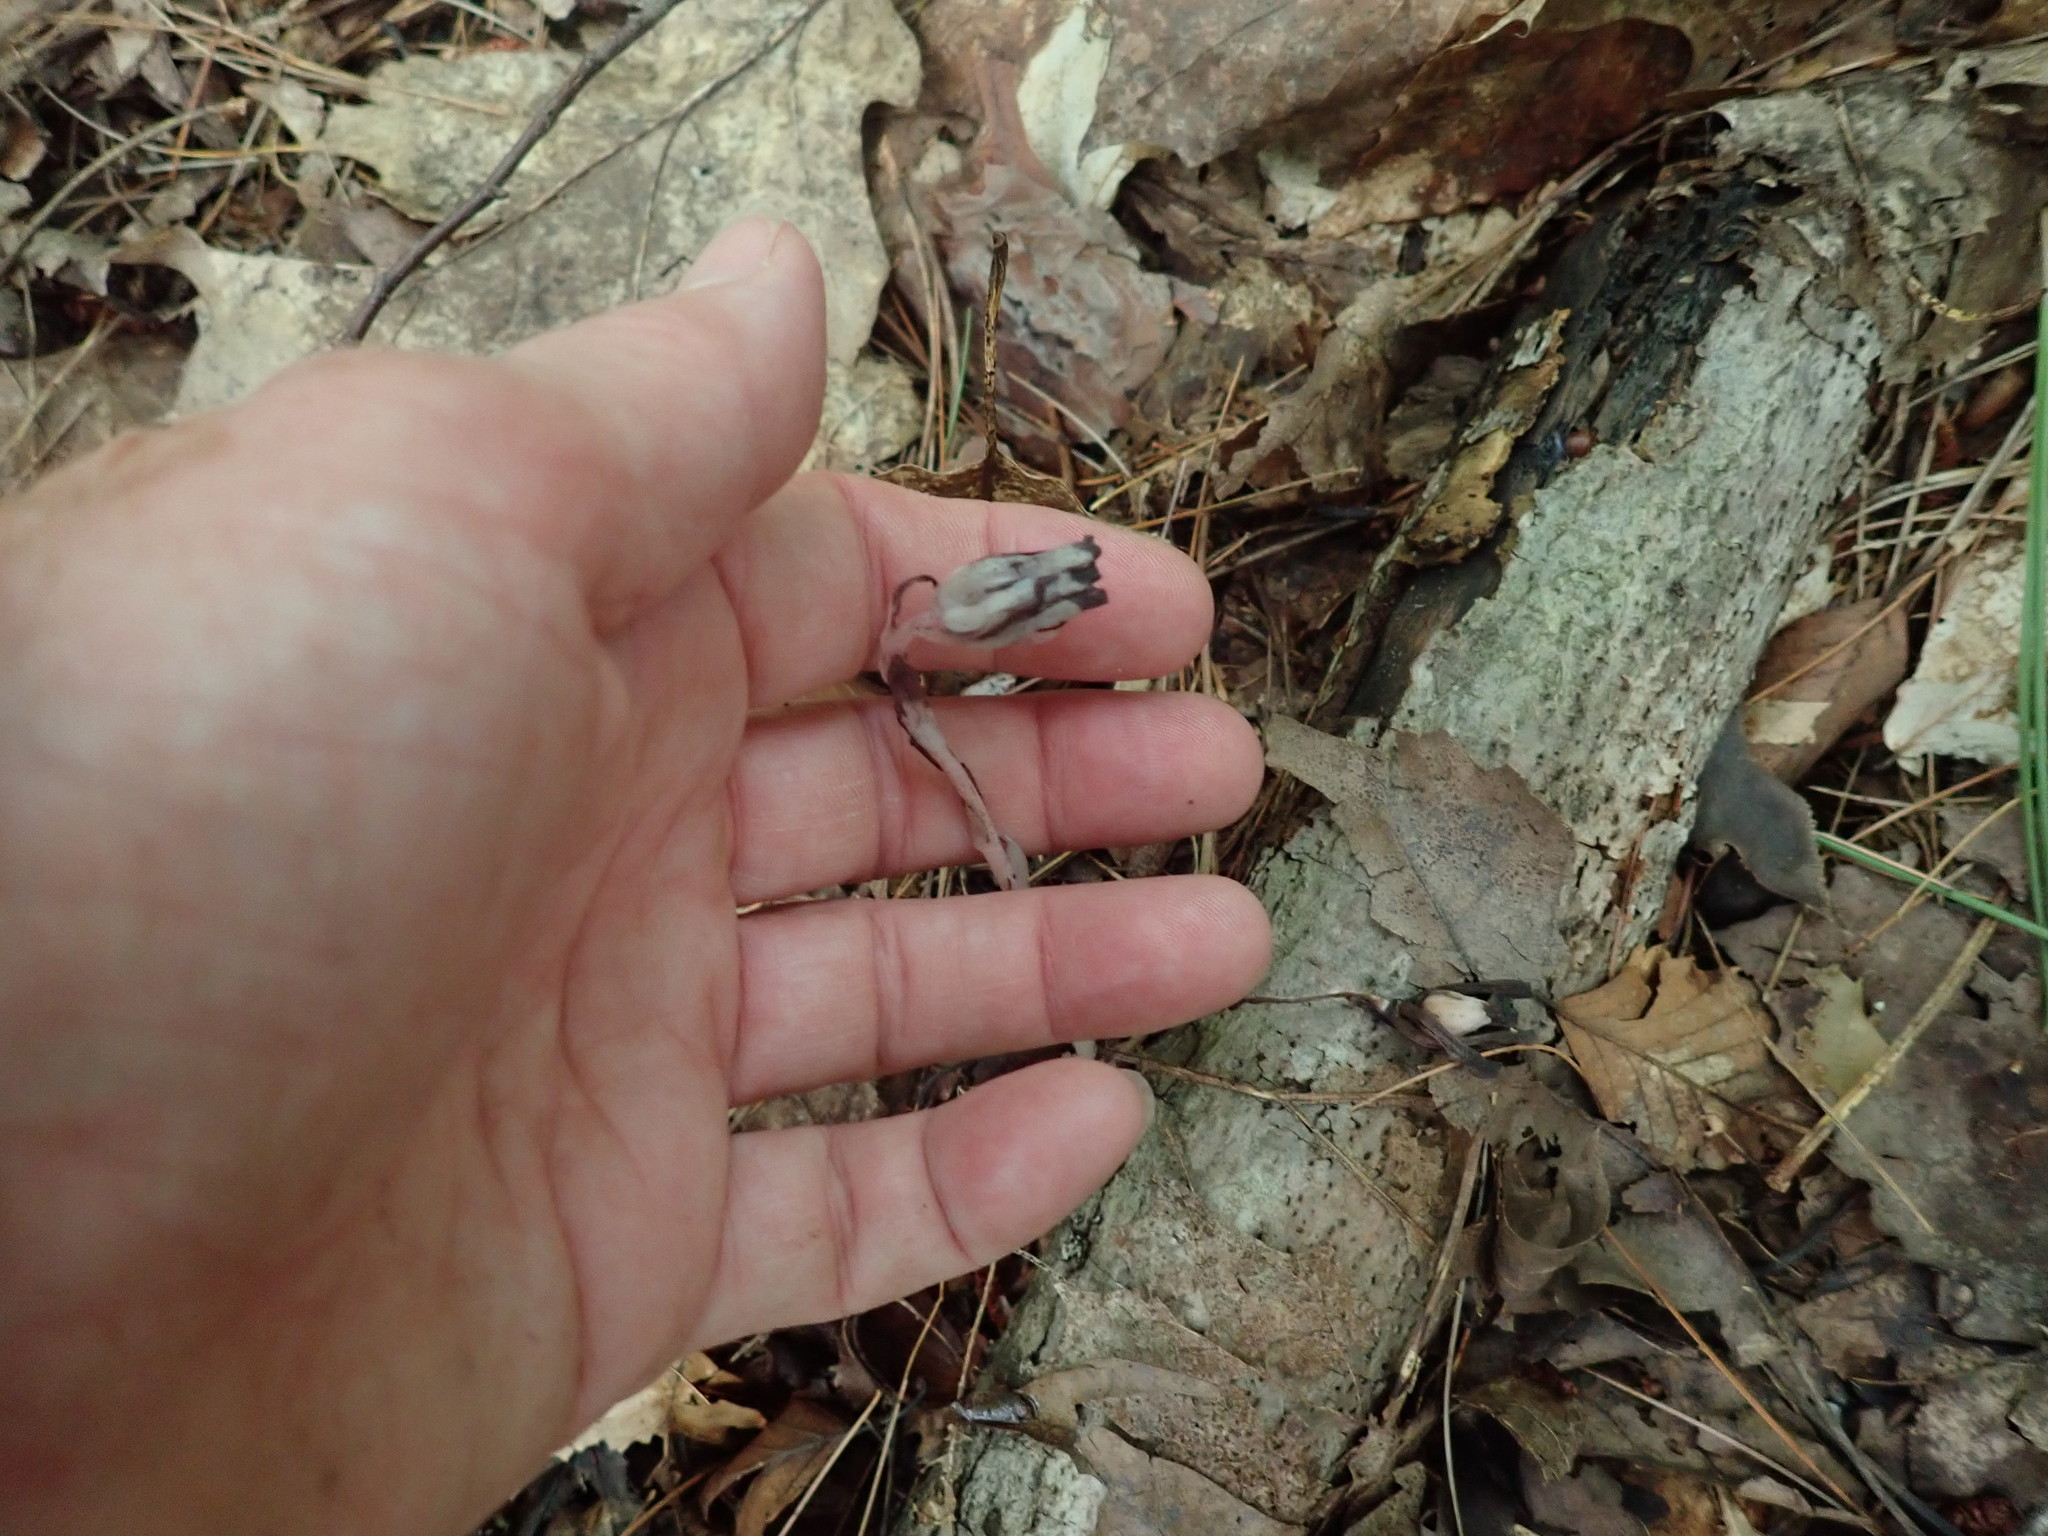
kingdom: Plantae
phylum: Tracheophyta
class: Magnoliopsida
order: Ericales
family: Ericaceae
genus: Monotropa
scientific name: Monotropa uniflora
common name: Convulsion root
